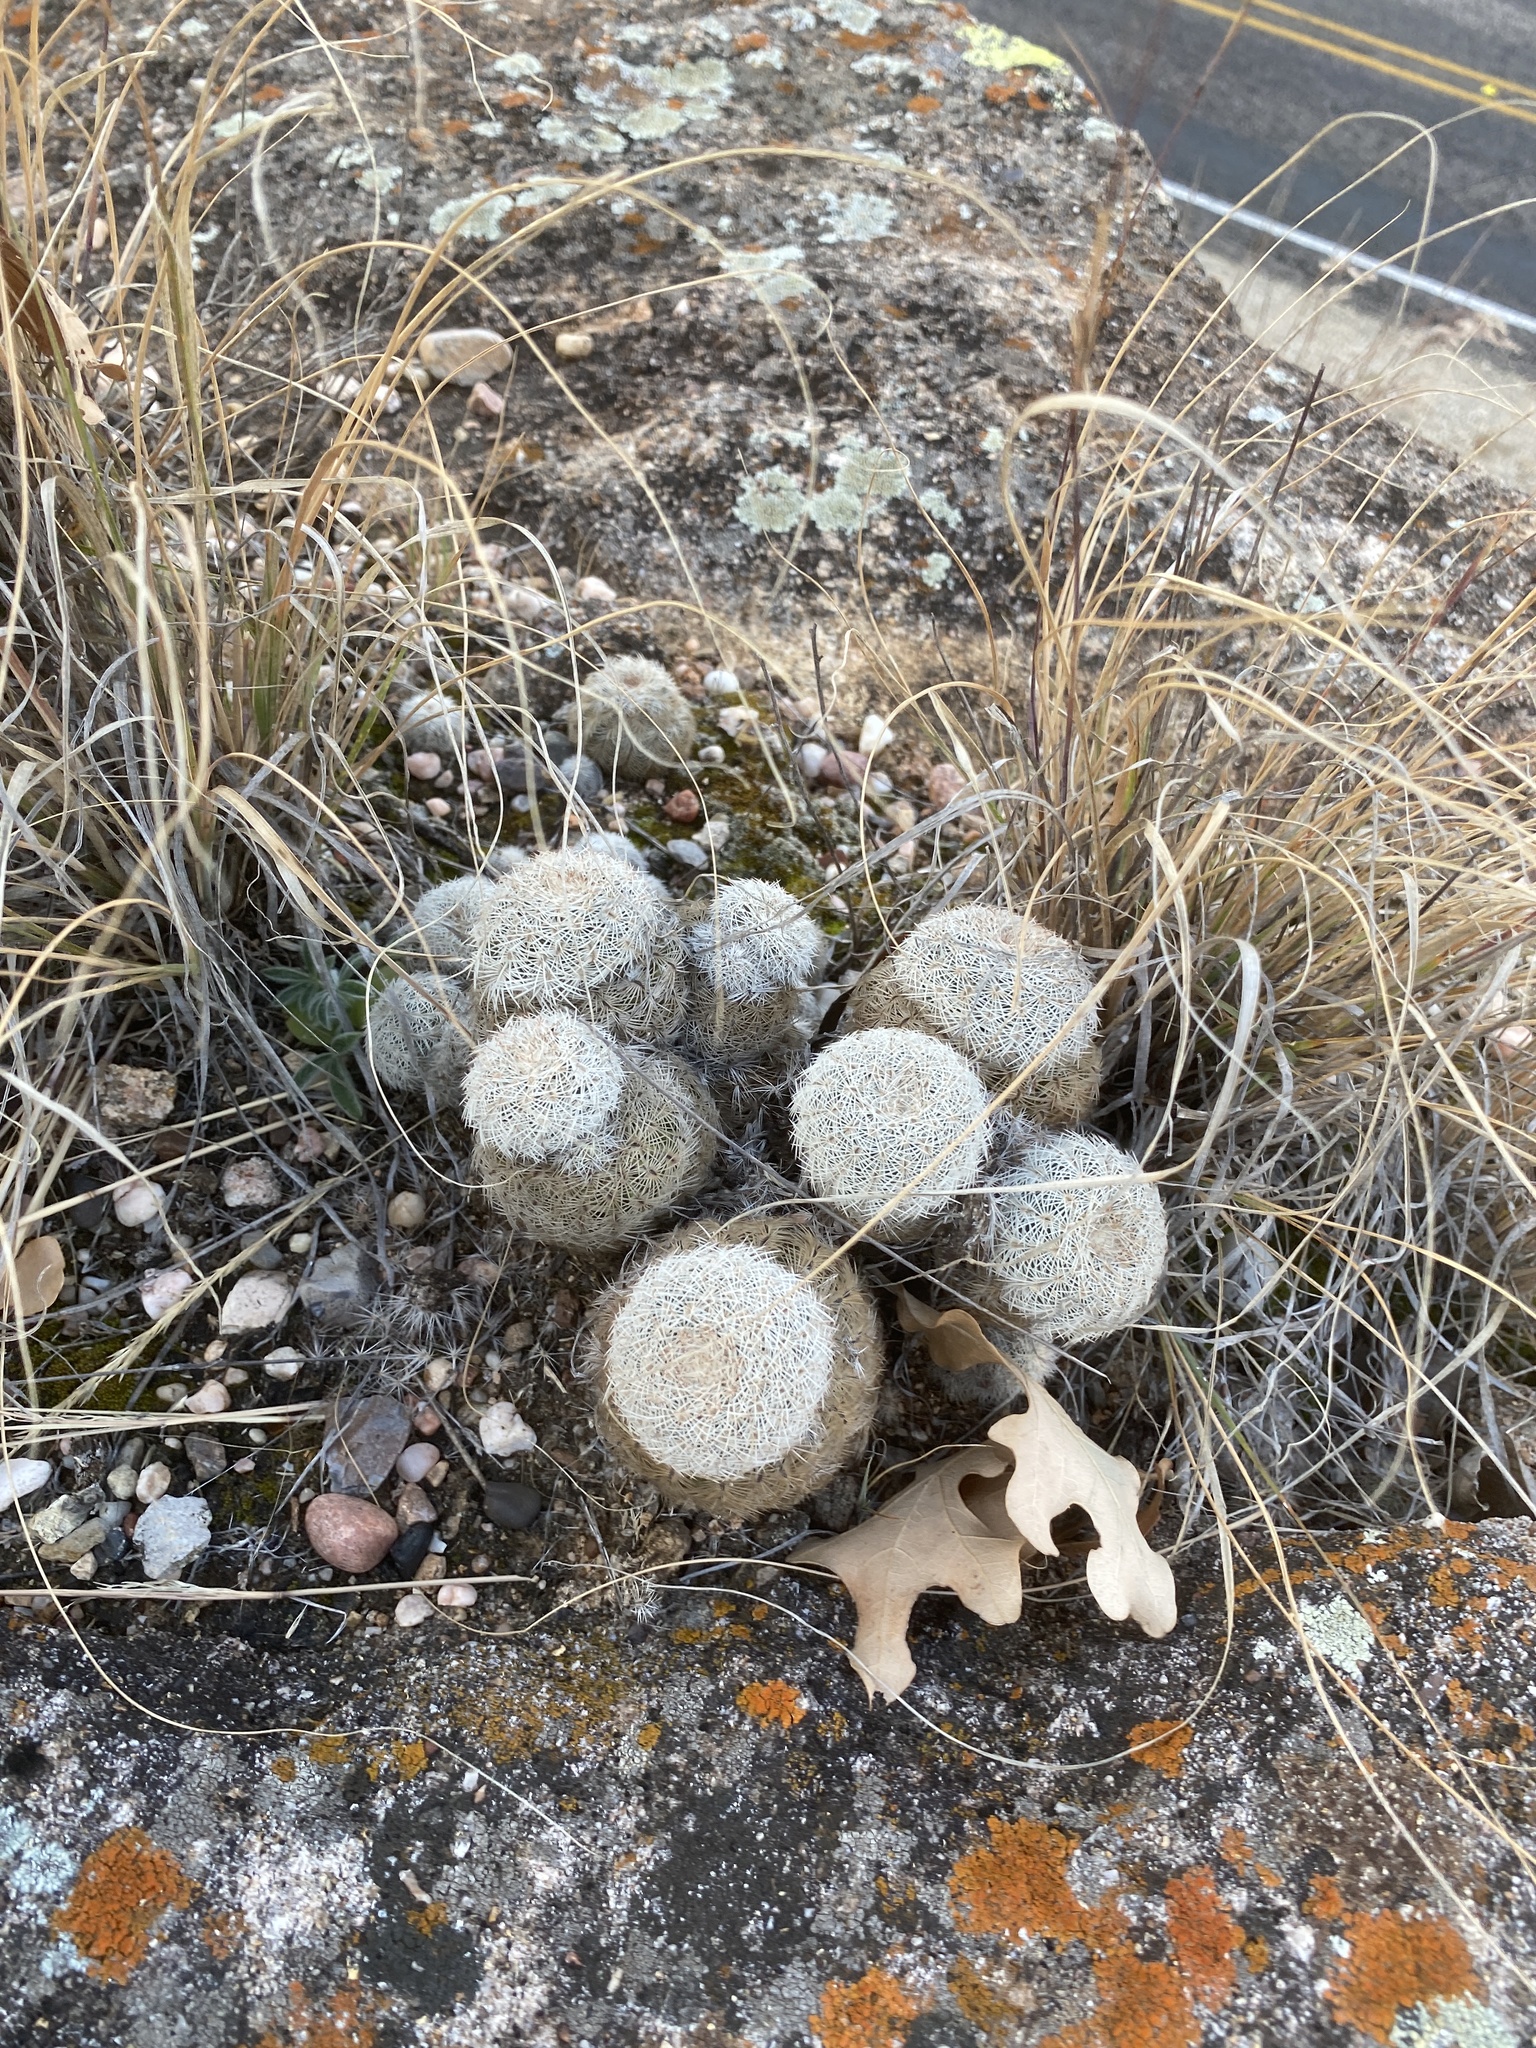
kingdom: Plantae
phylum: Tracheophyta
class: Magnoliopsida
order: Caryophyllales
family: Cactaceae
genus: Echinocereus
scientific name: Echinocereus reichenbachii
